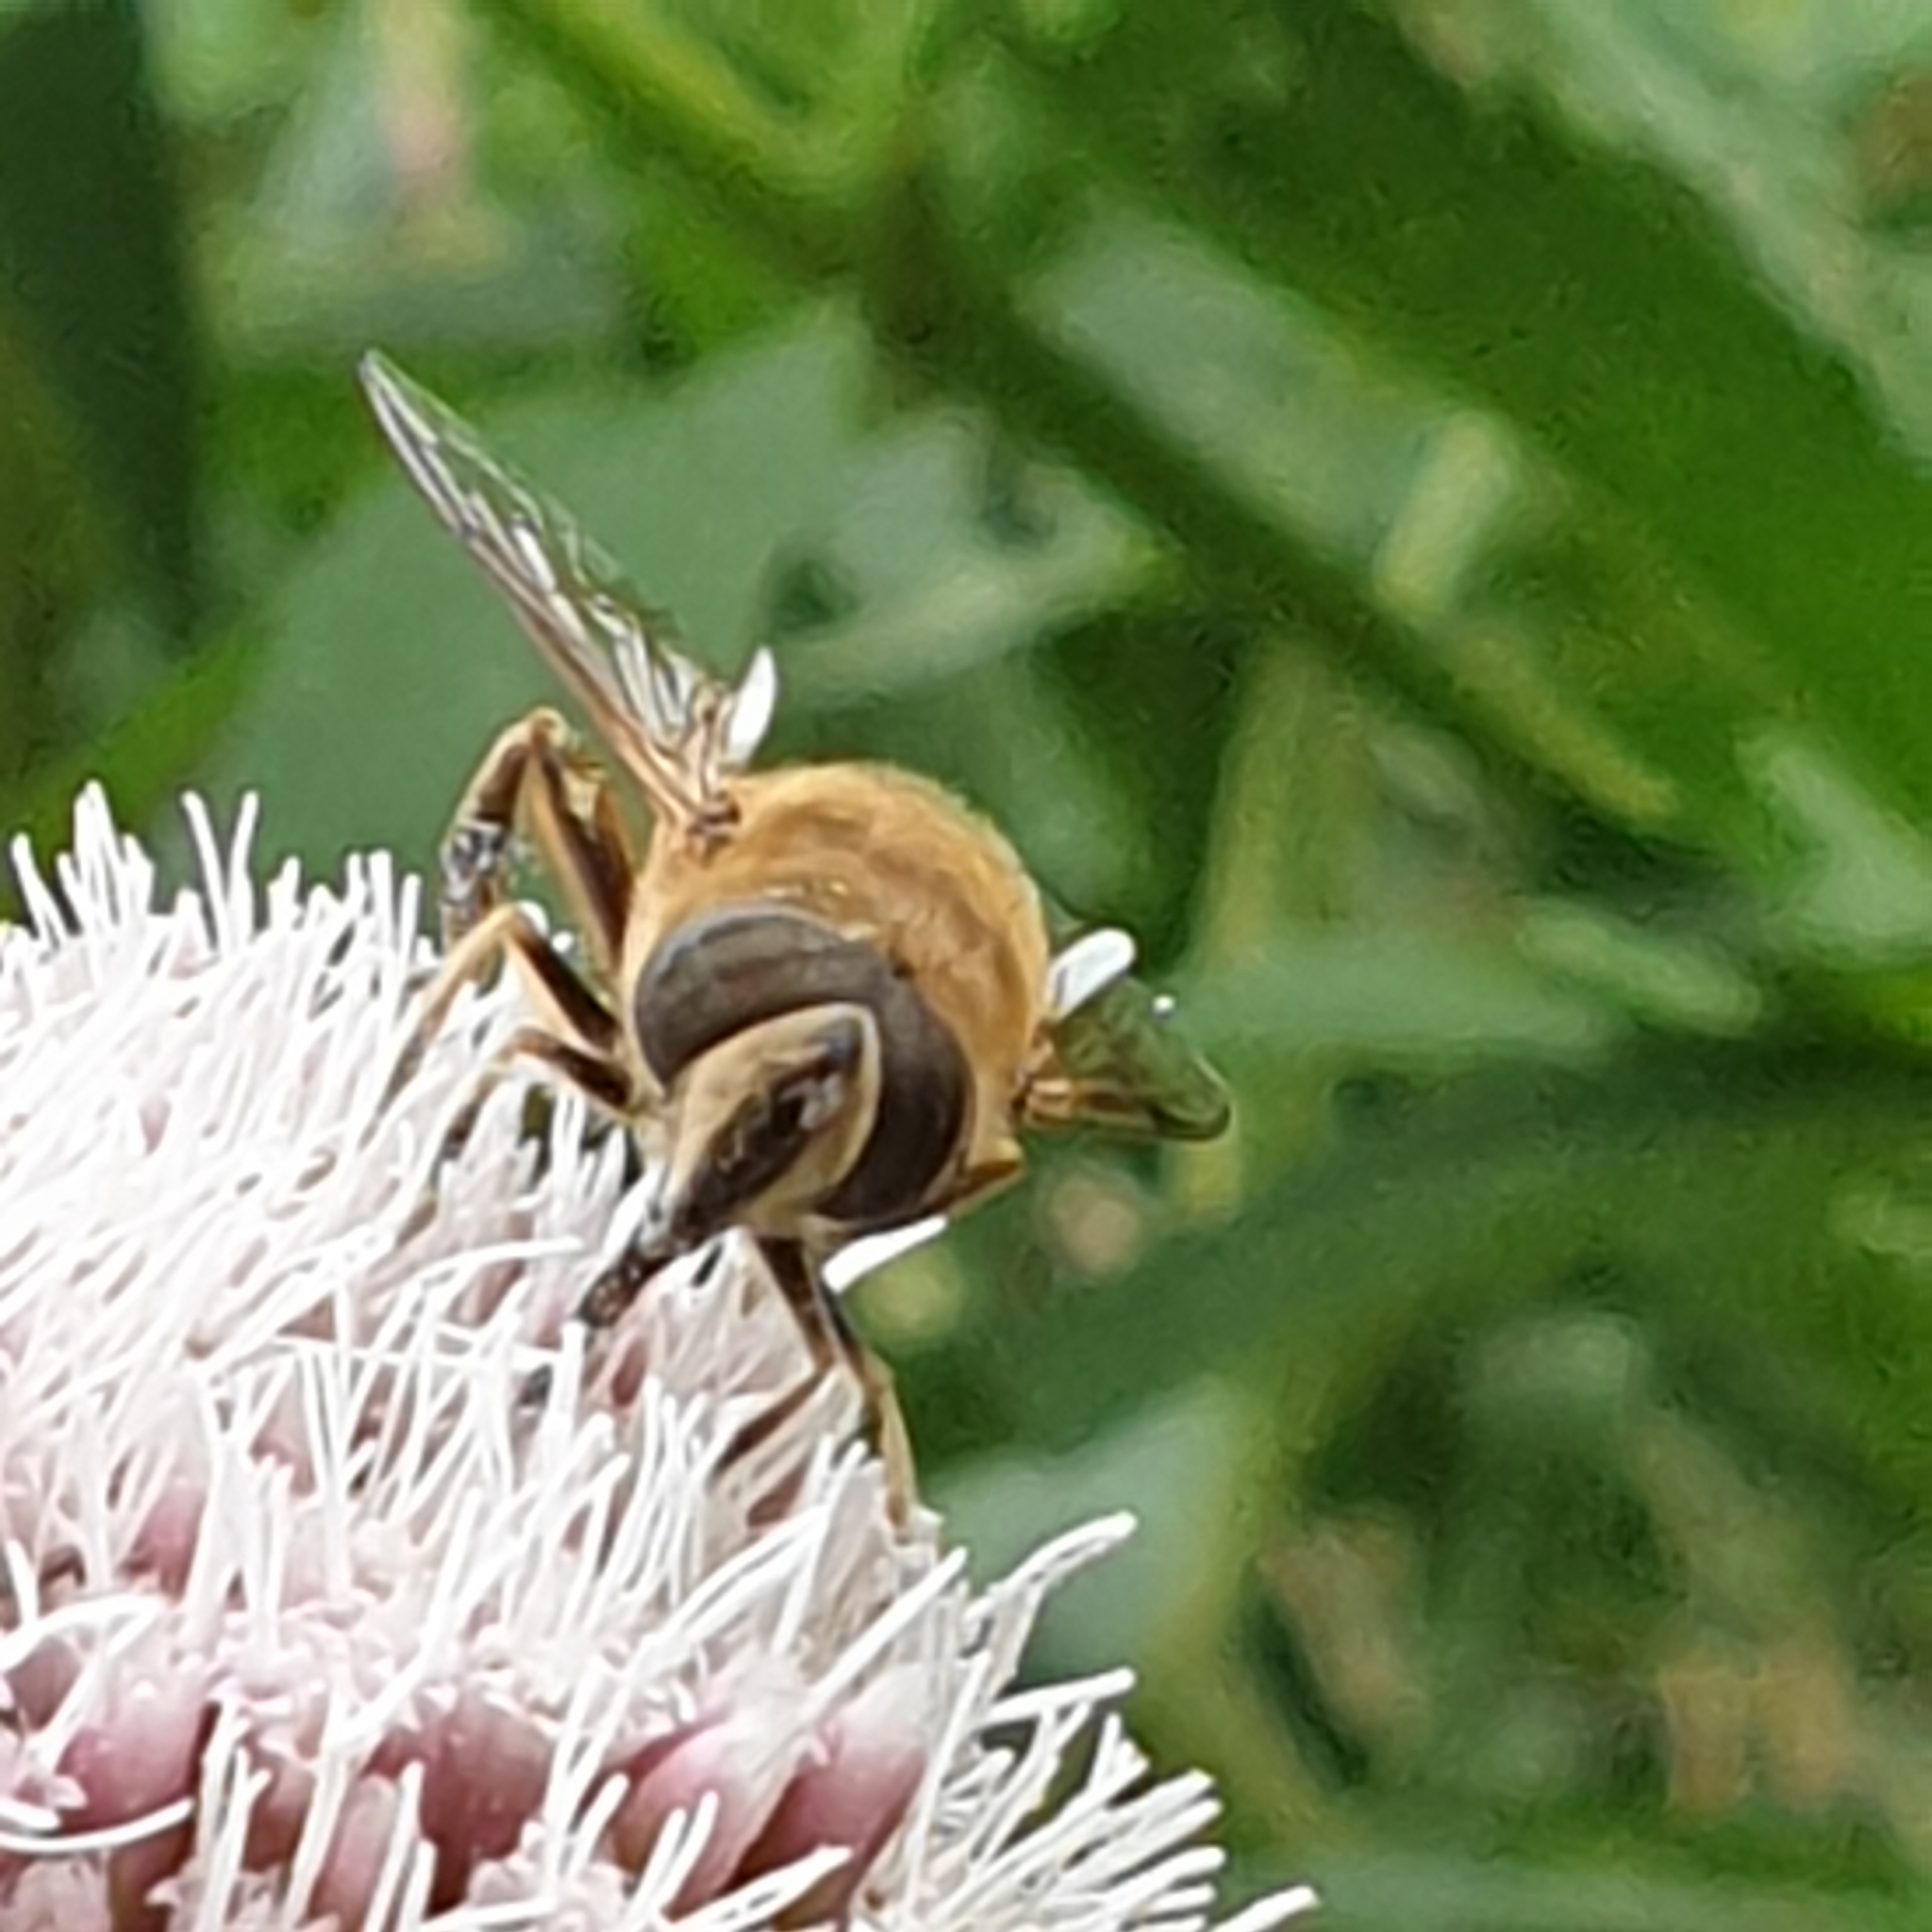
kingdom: Animalia
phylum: Arthropoda
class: Insecta
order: Diptera
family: Syrphidae
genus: Eristalis
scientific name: Eristalis tenax
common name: Drone fly
